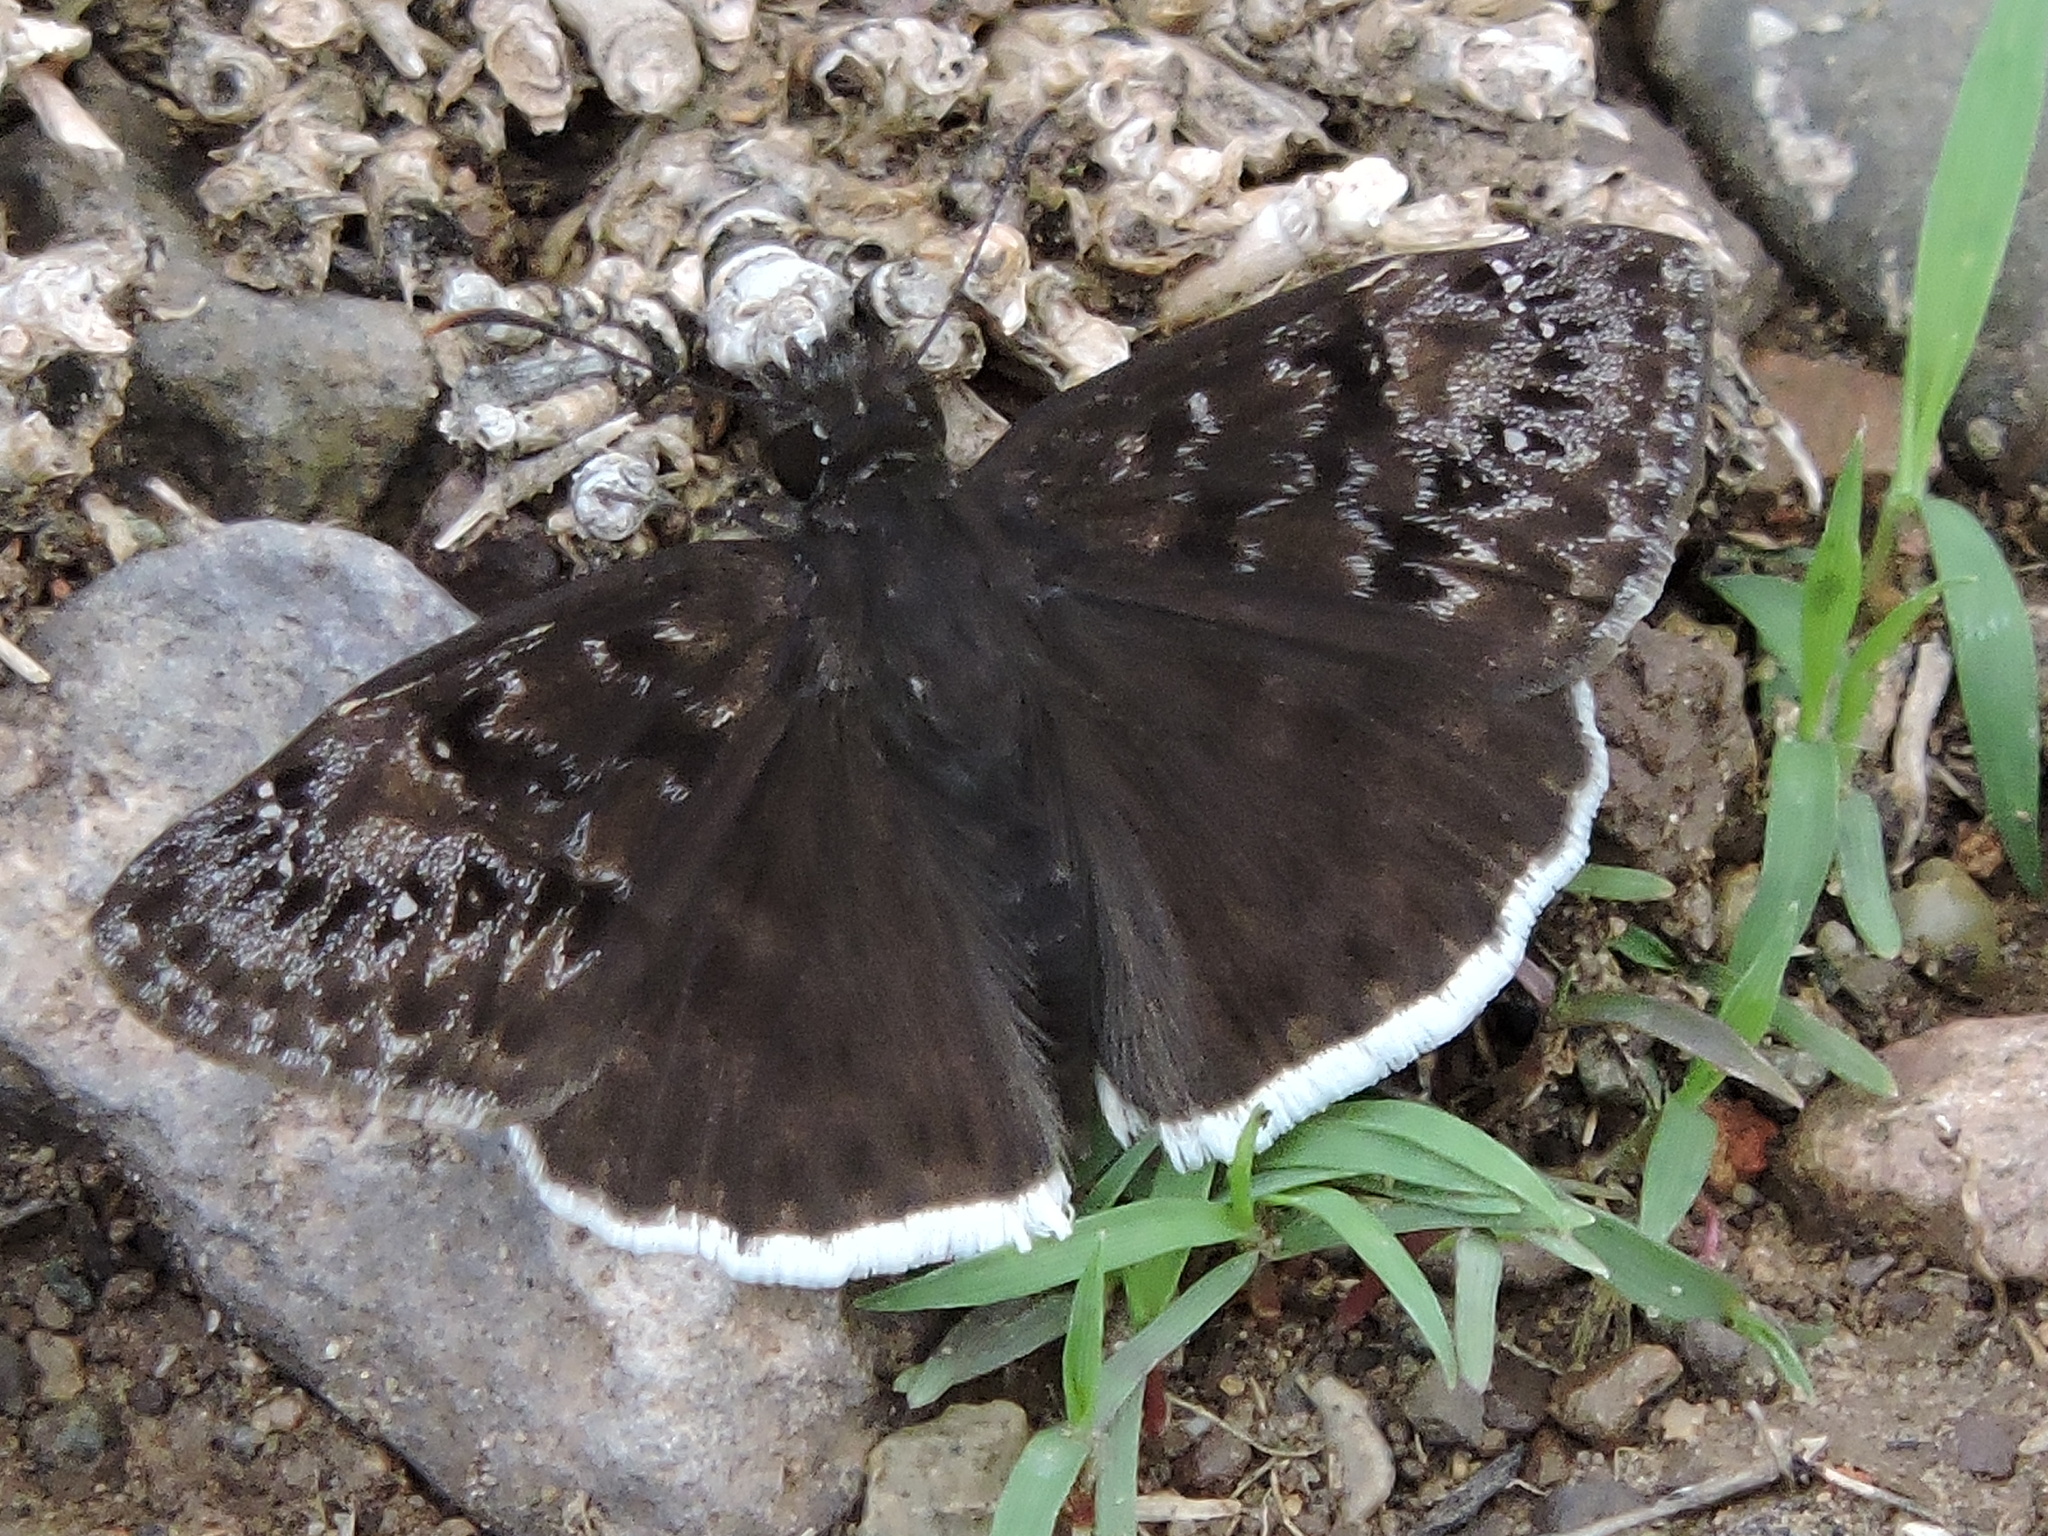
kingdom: Animalia
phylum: Arthropoda
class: Insecta
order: Lepidoptera
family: Hesperiidae
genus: Erynnis
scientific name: Erynnis tristis
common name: Mournful duskywing
